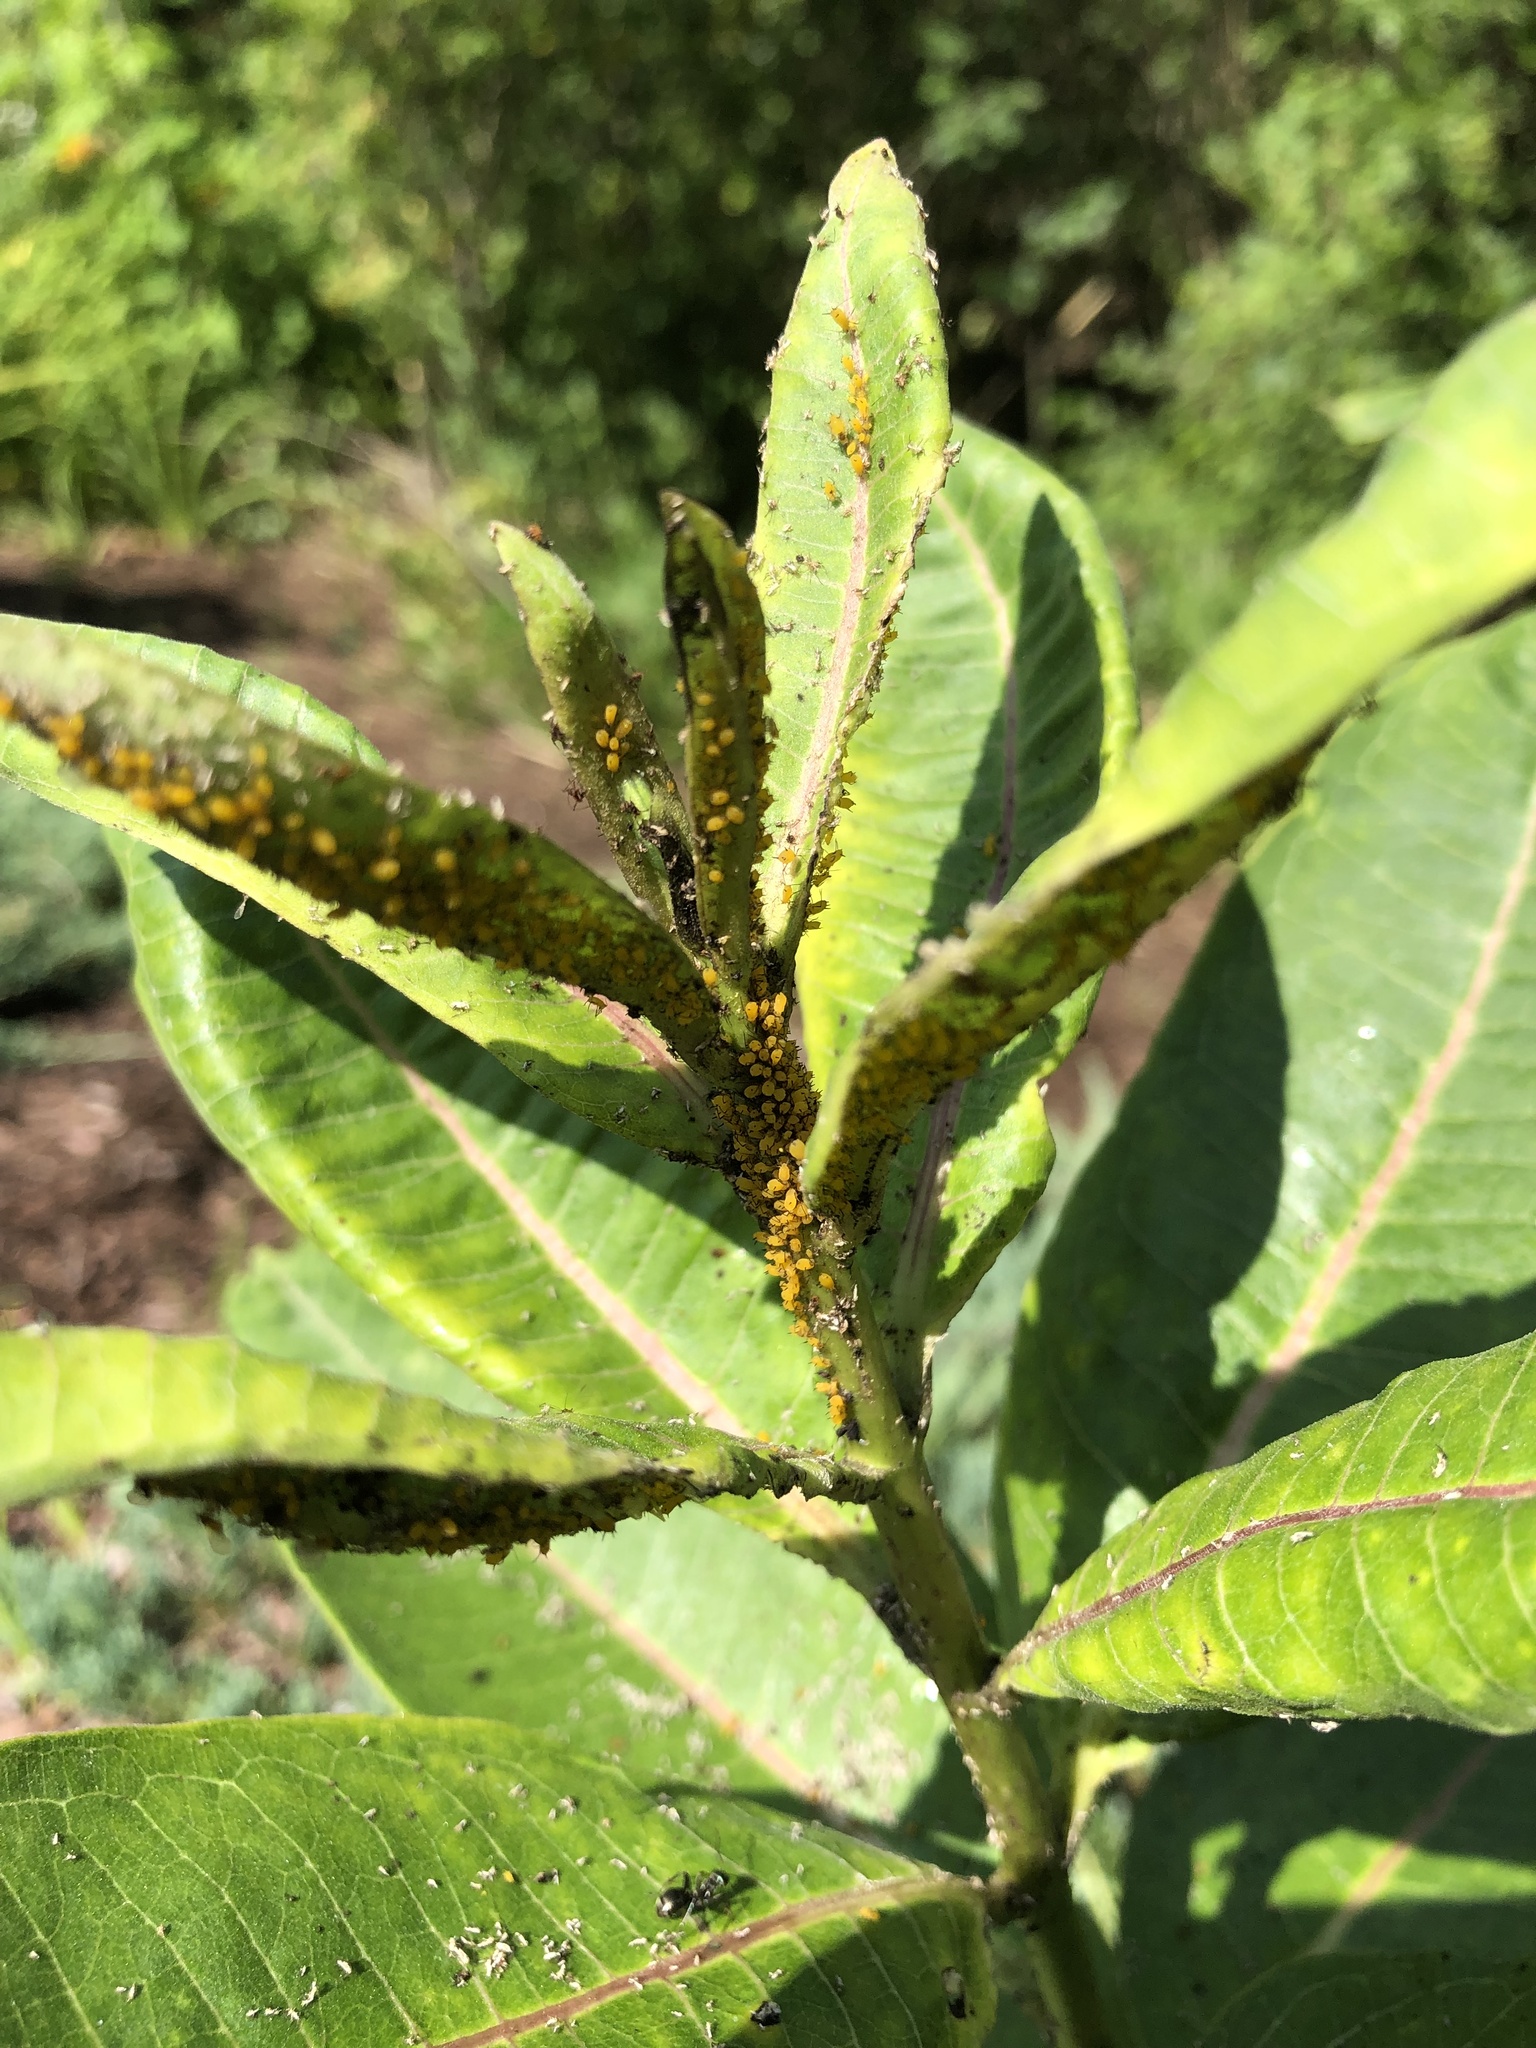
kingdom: Animalia
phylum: Arthropoda
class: Insecta
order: Hemiptera
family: Aphididae
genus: Aphis
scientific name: Aphis nerii
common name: Oleander aphid
